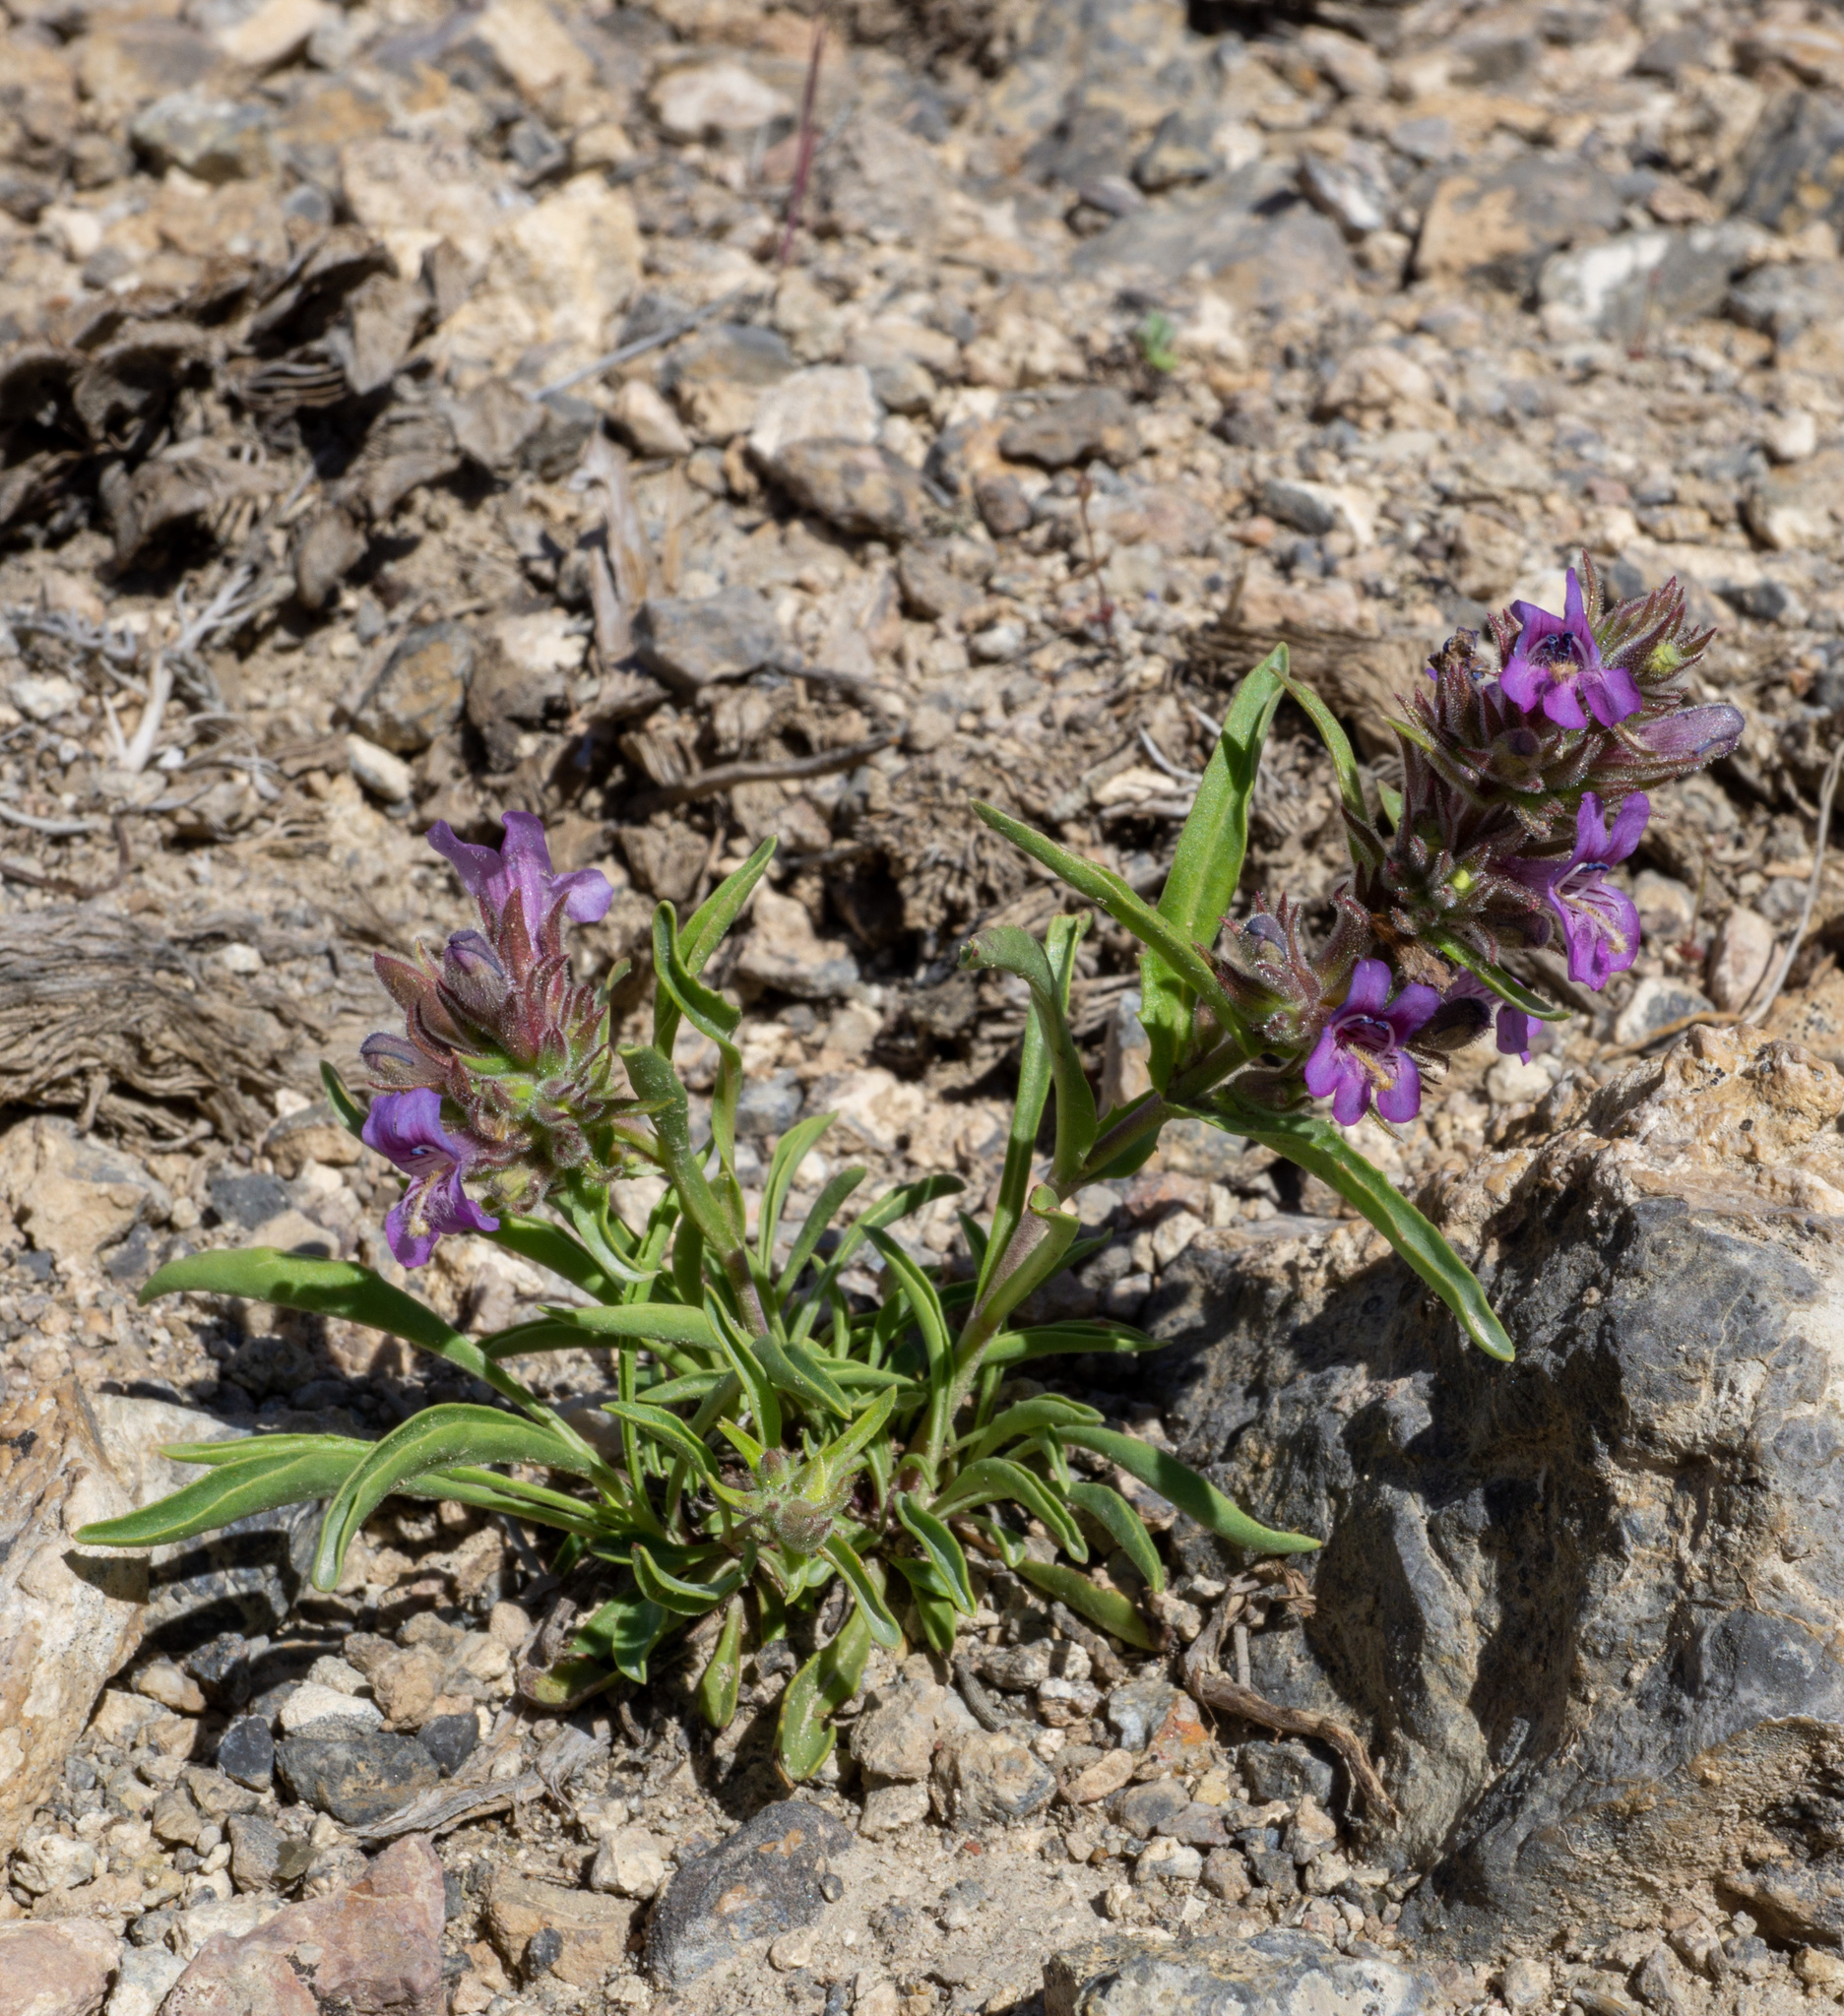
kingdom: Plantae
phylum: Tracheophyta
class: Magnoliopsida
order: Lamiales
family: Plantaginaceae
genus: Penstemon
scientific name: Penstemon concinnus
